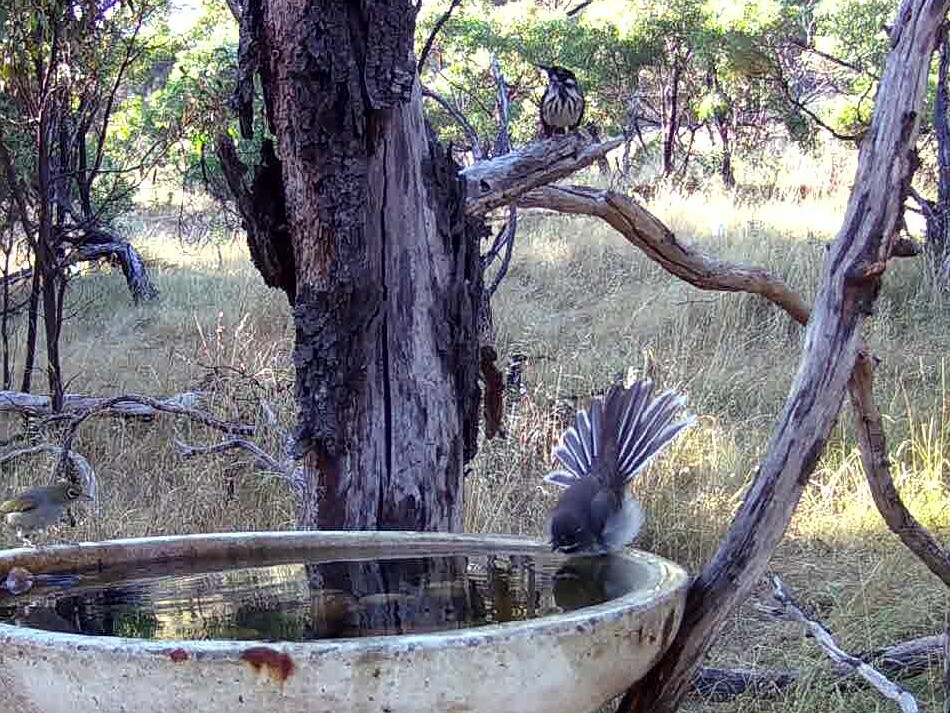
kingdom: Animalia
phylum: Chordata
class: Aves
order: Passeriformes
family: Rhipiduridae
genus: Rhipidura
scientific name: Rhipidura albiscapa
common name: Grey fantail
